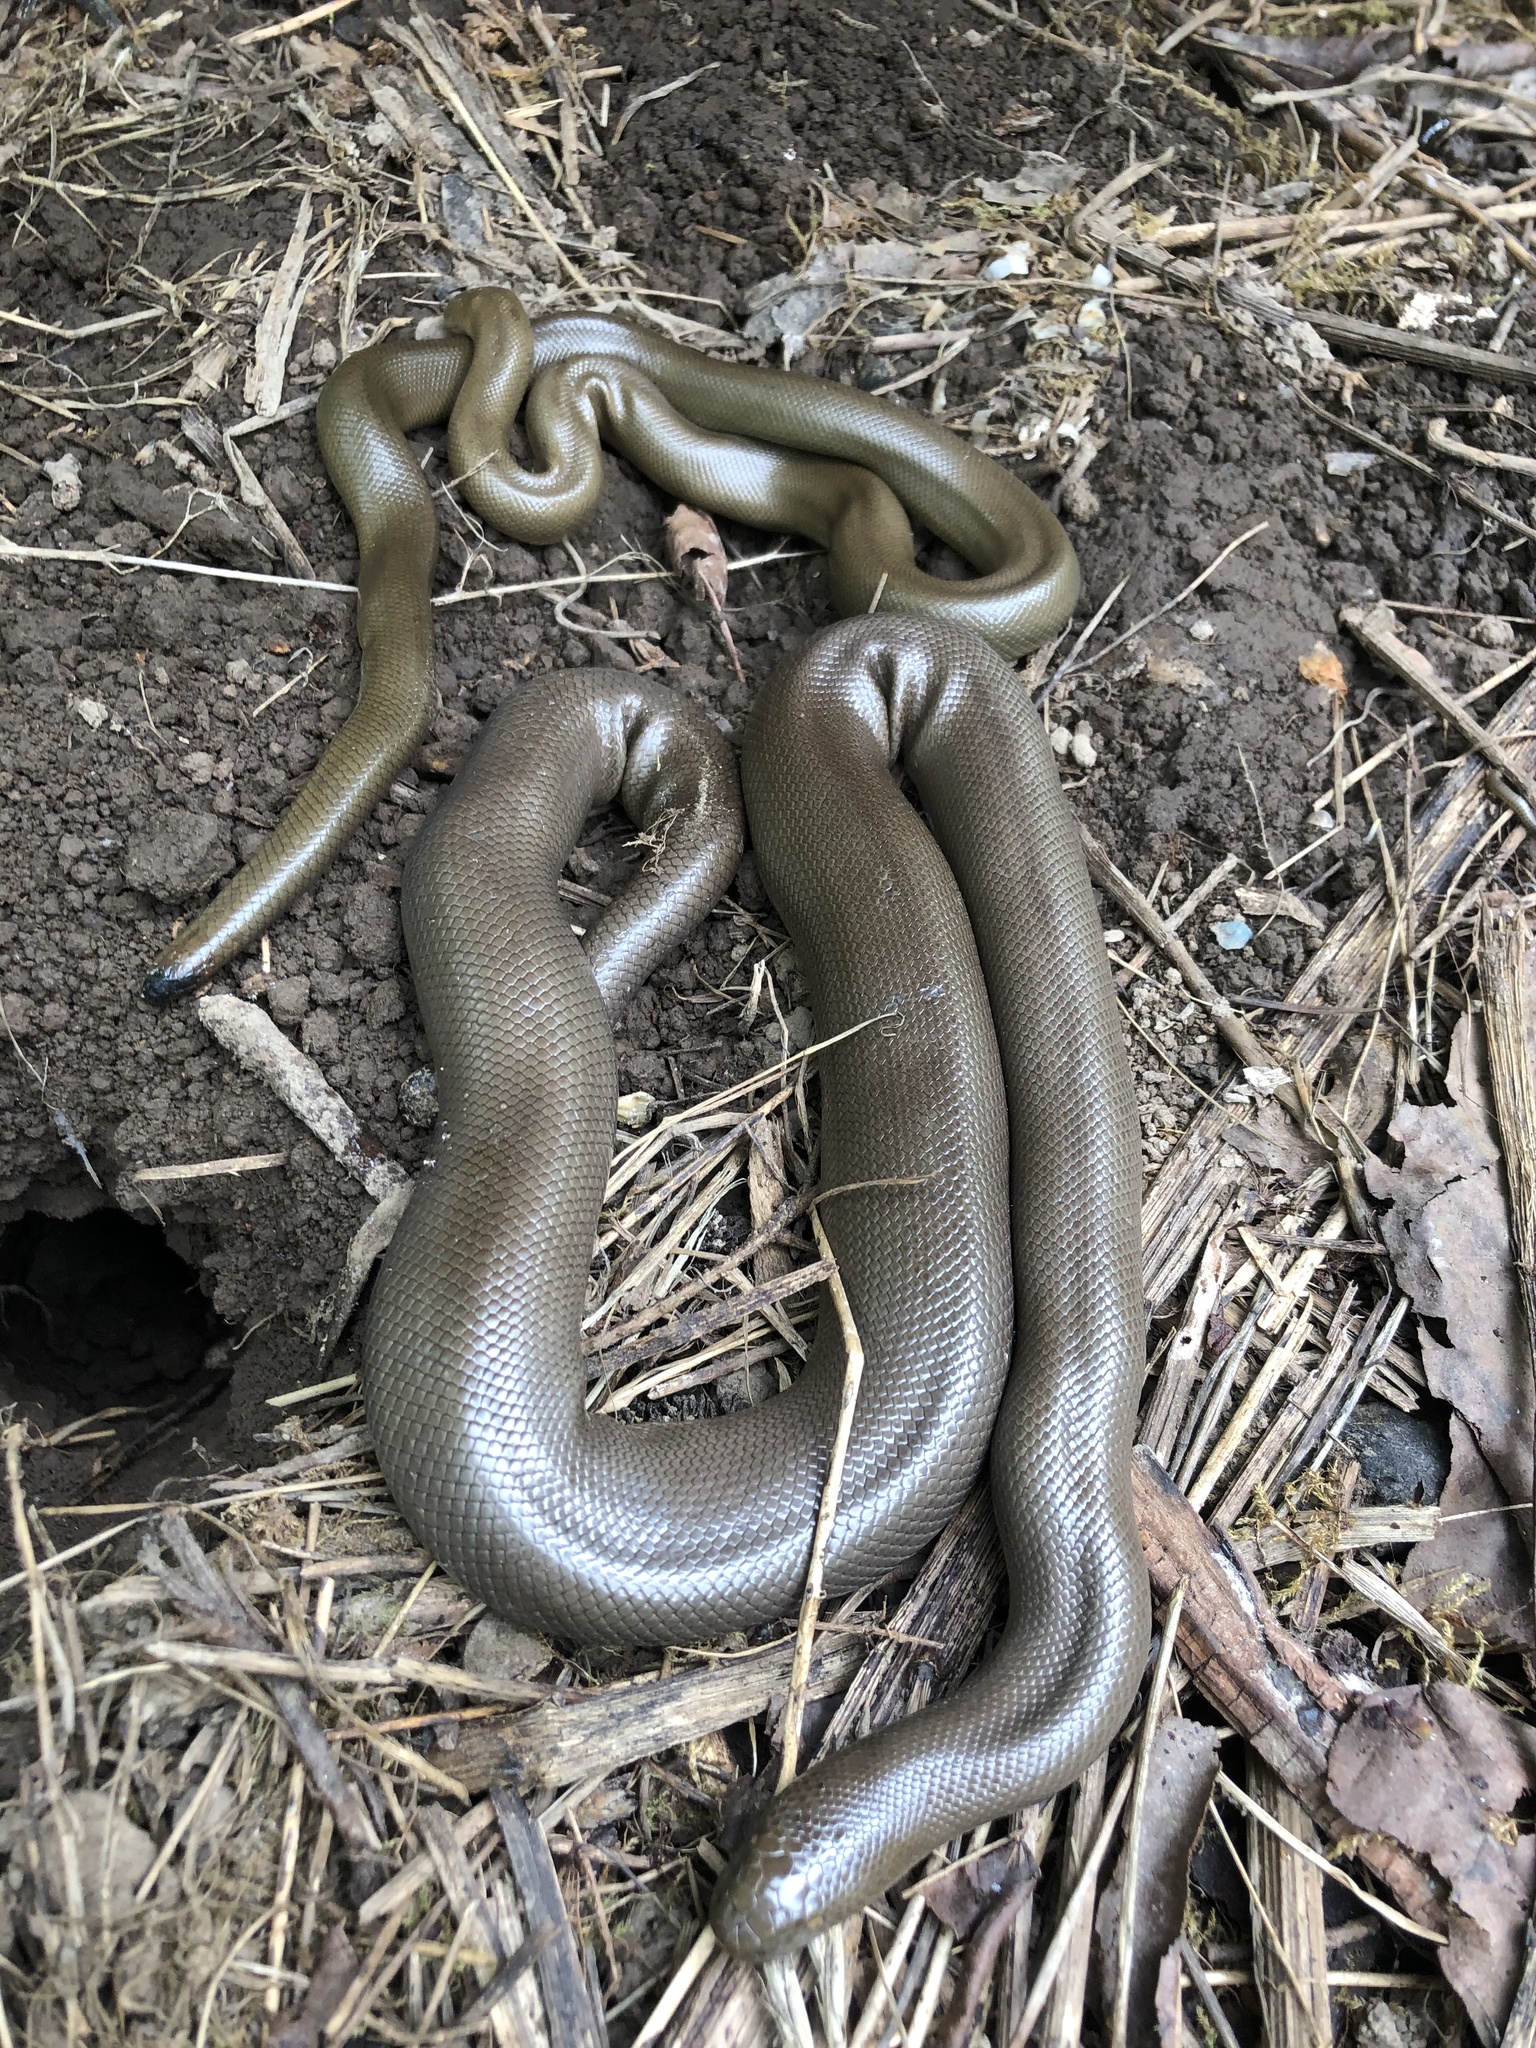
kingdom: Animalia
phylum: Chordata
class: Squamata
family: Boidae
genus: Charina
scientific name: Charina bottae
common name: Northern rubber boa
